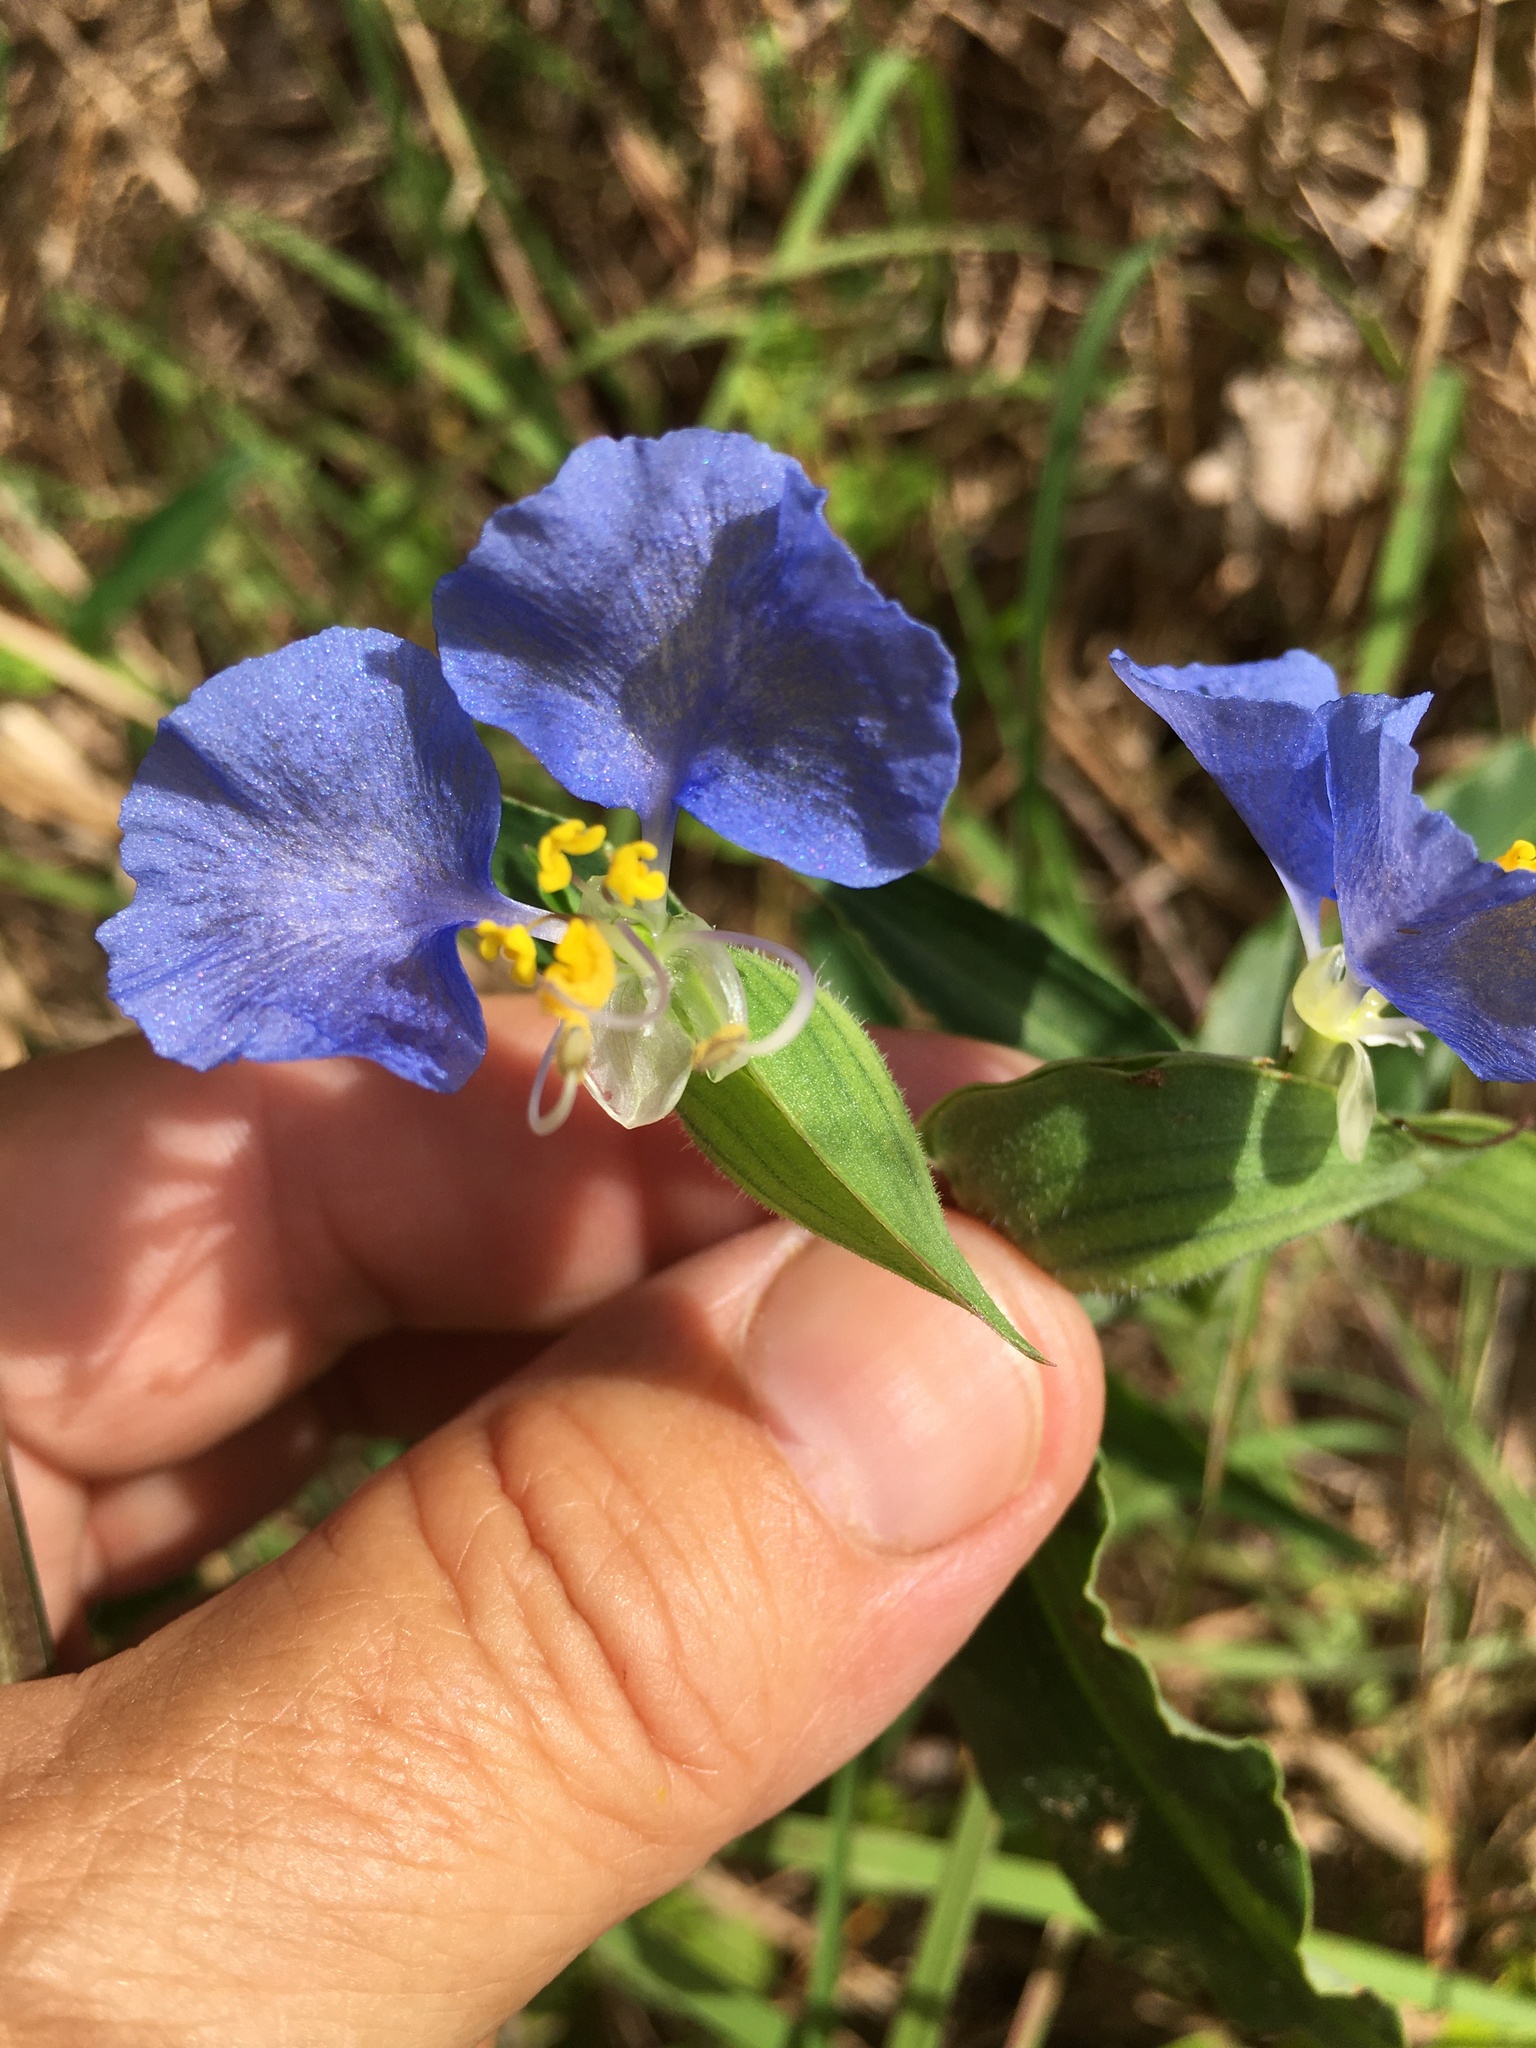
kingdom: Plantae
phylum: Tracheophyta
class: Liliopsida
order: Commelinales
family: Commelinaceae
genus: Commelina
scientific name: Commelina erecta
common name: Blousel blommetjie
